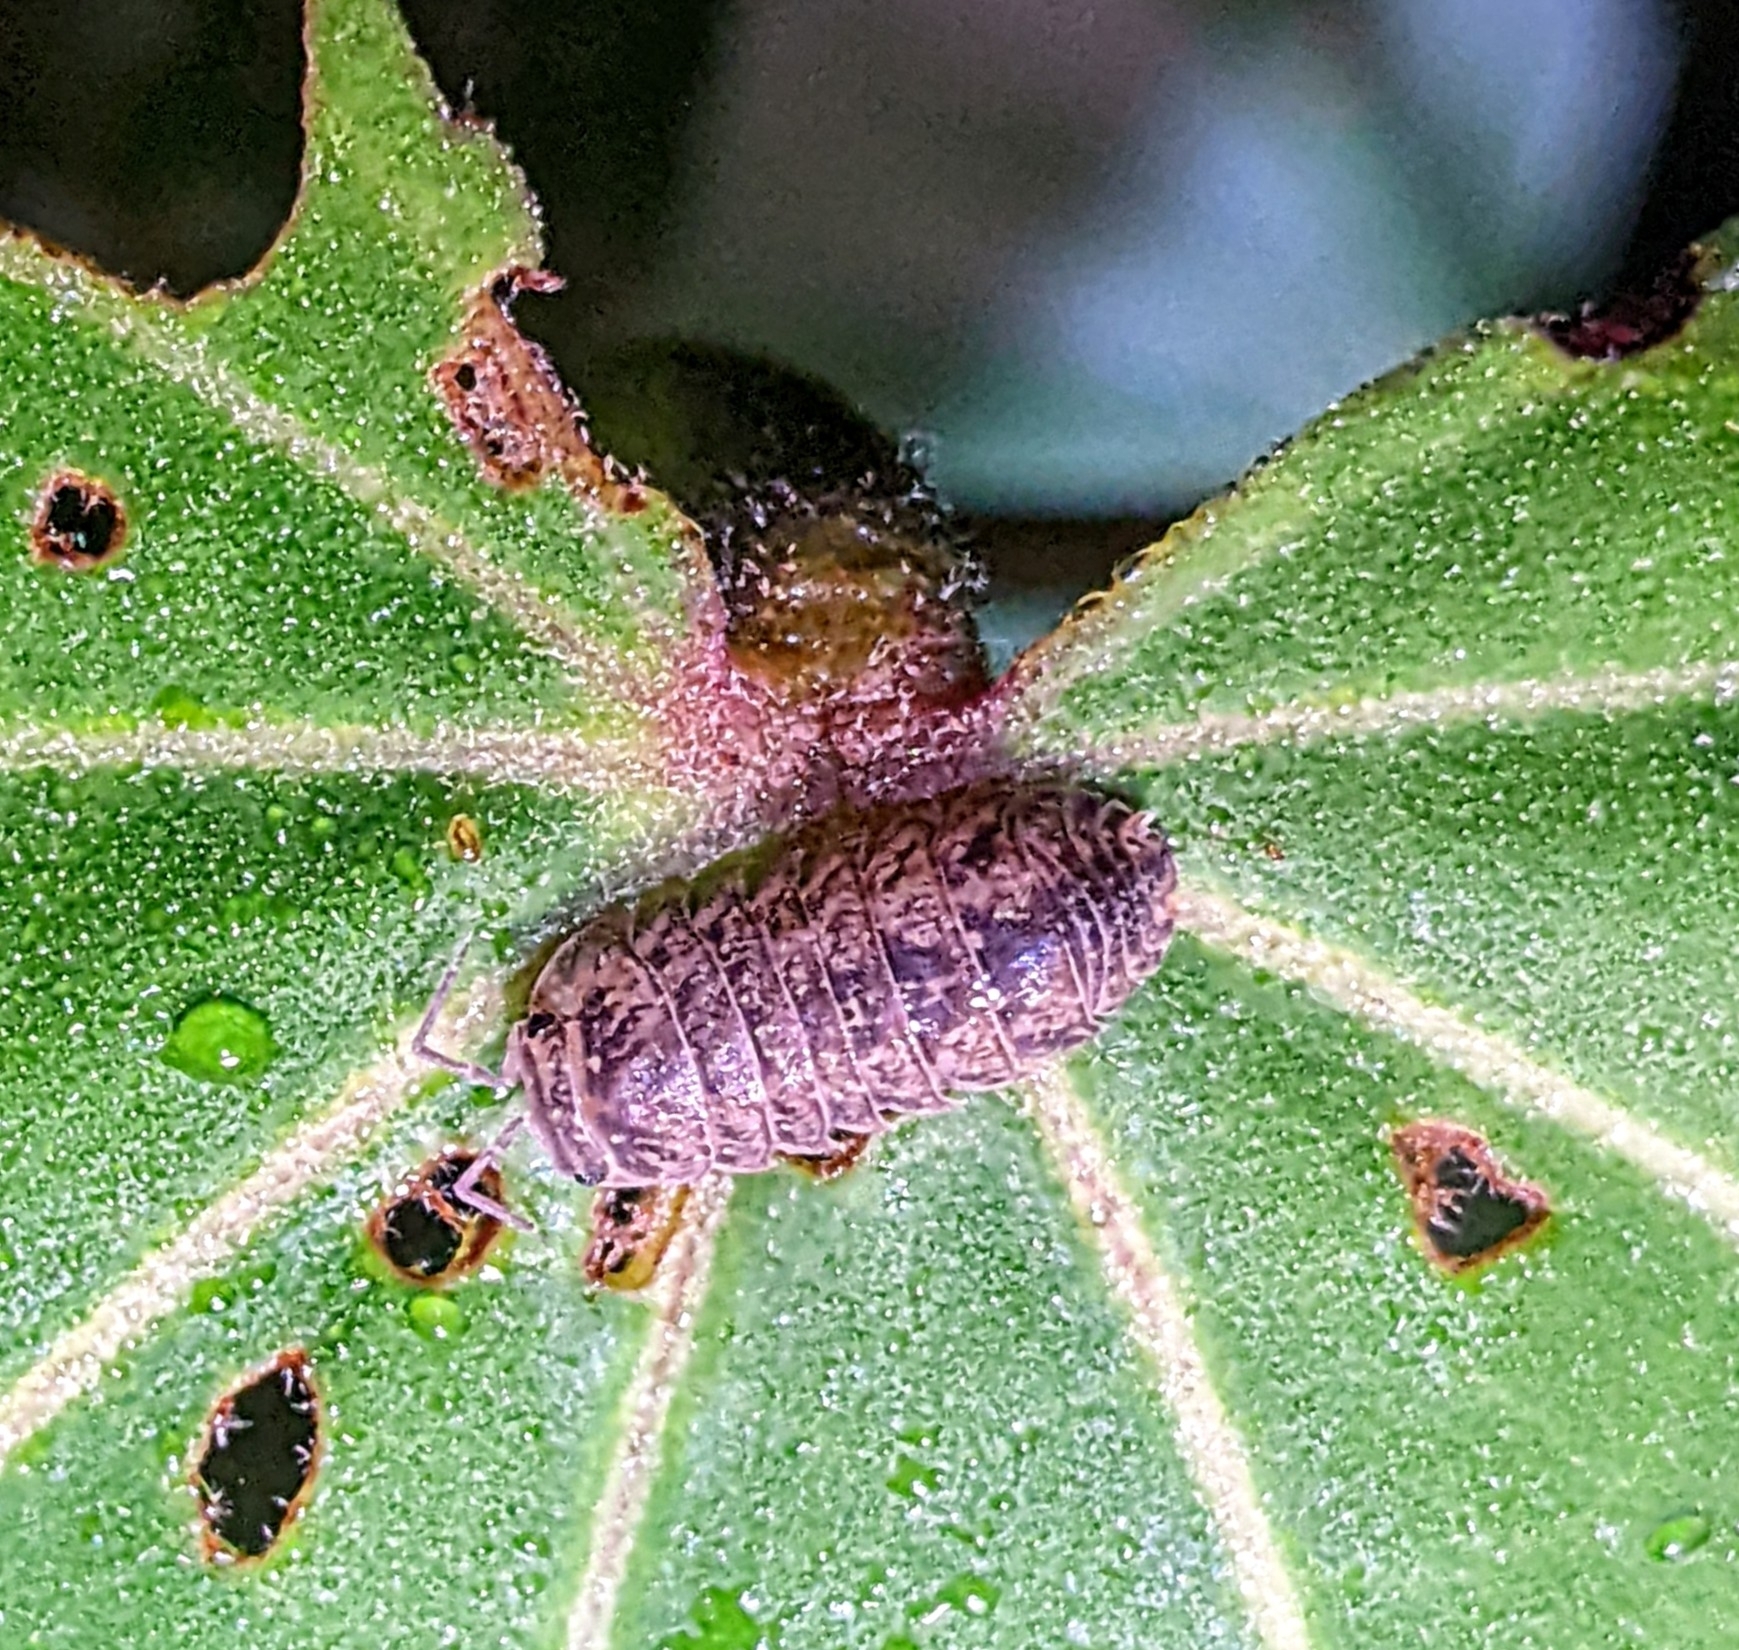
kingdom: Animalia
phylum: Arthropoda
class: Malacostraca
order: Isopoda
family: Armadillidae
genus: Armadillo
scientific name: Armadillo intermixtus
